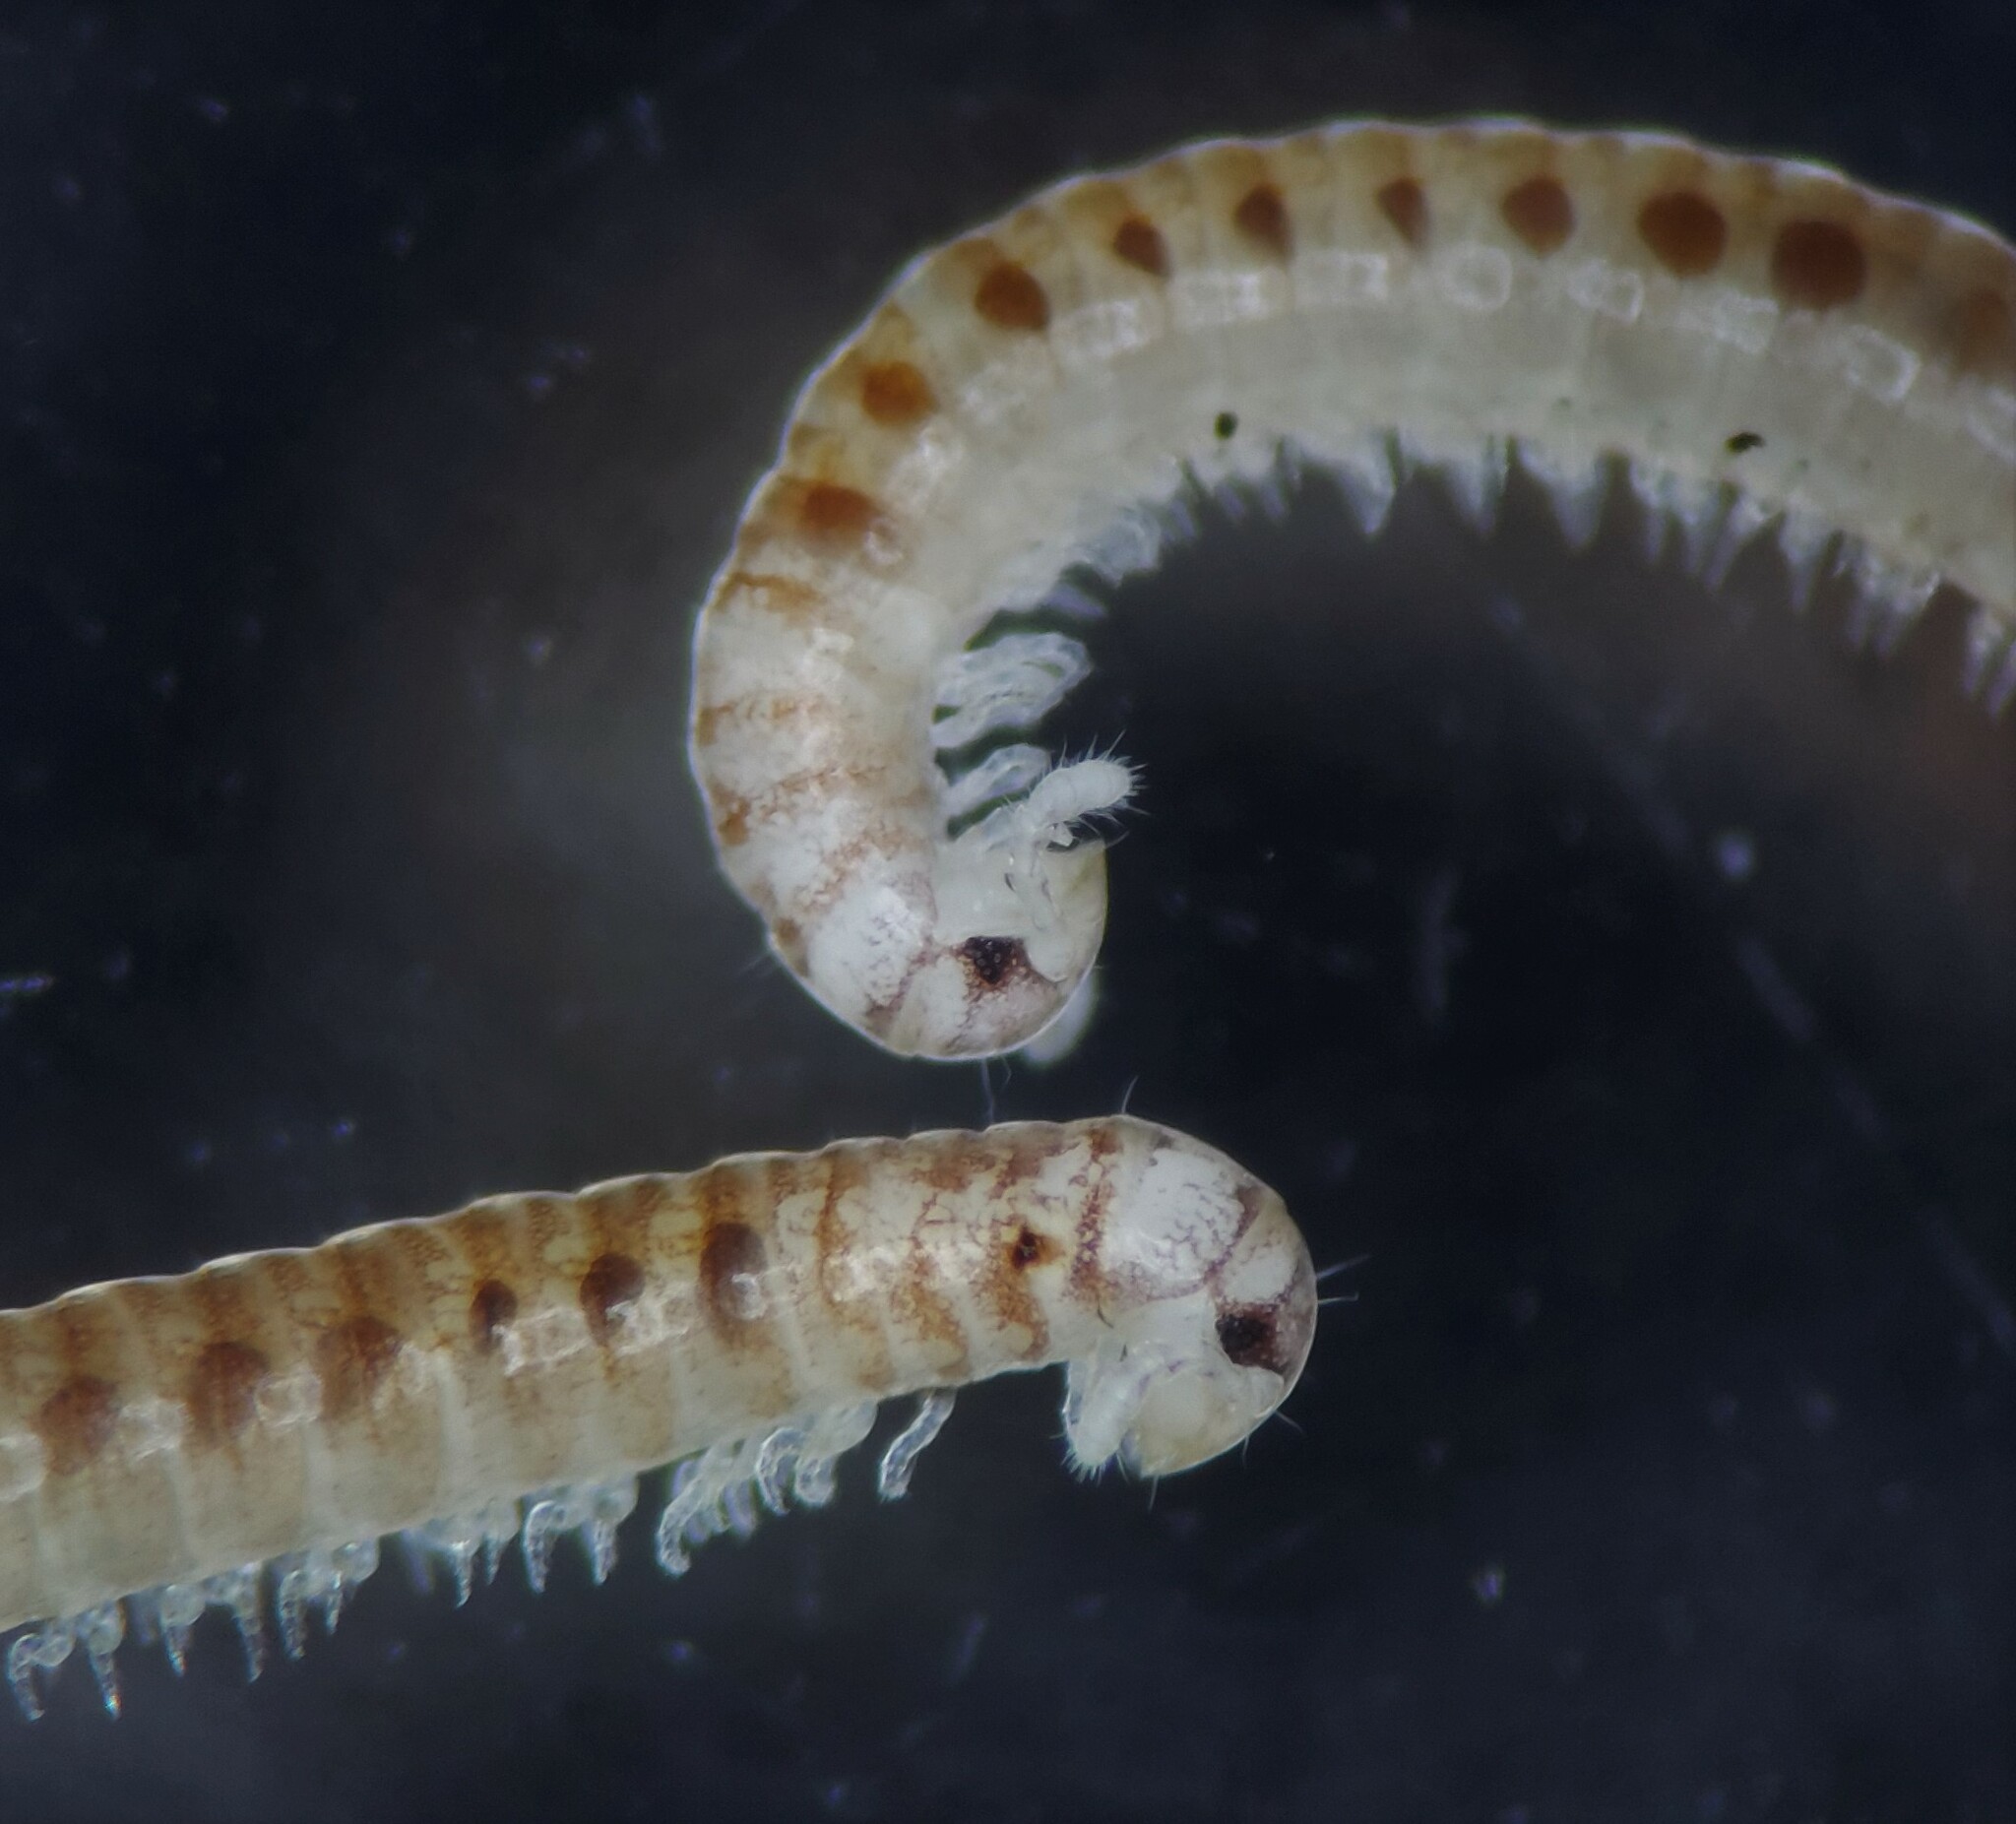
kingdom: Animalia
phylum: Arthropoda
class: Diplopoda
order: Julida
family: Okeanobatidae
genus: Okeanobates
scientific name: Okeanobates americanus
